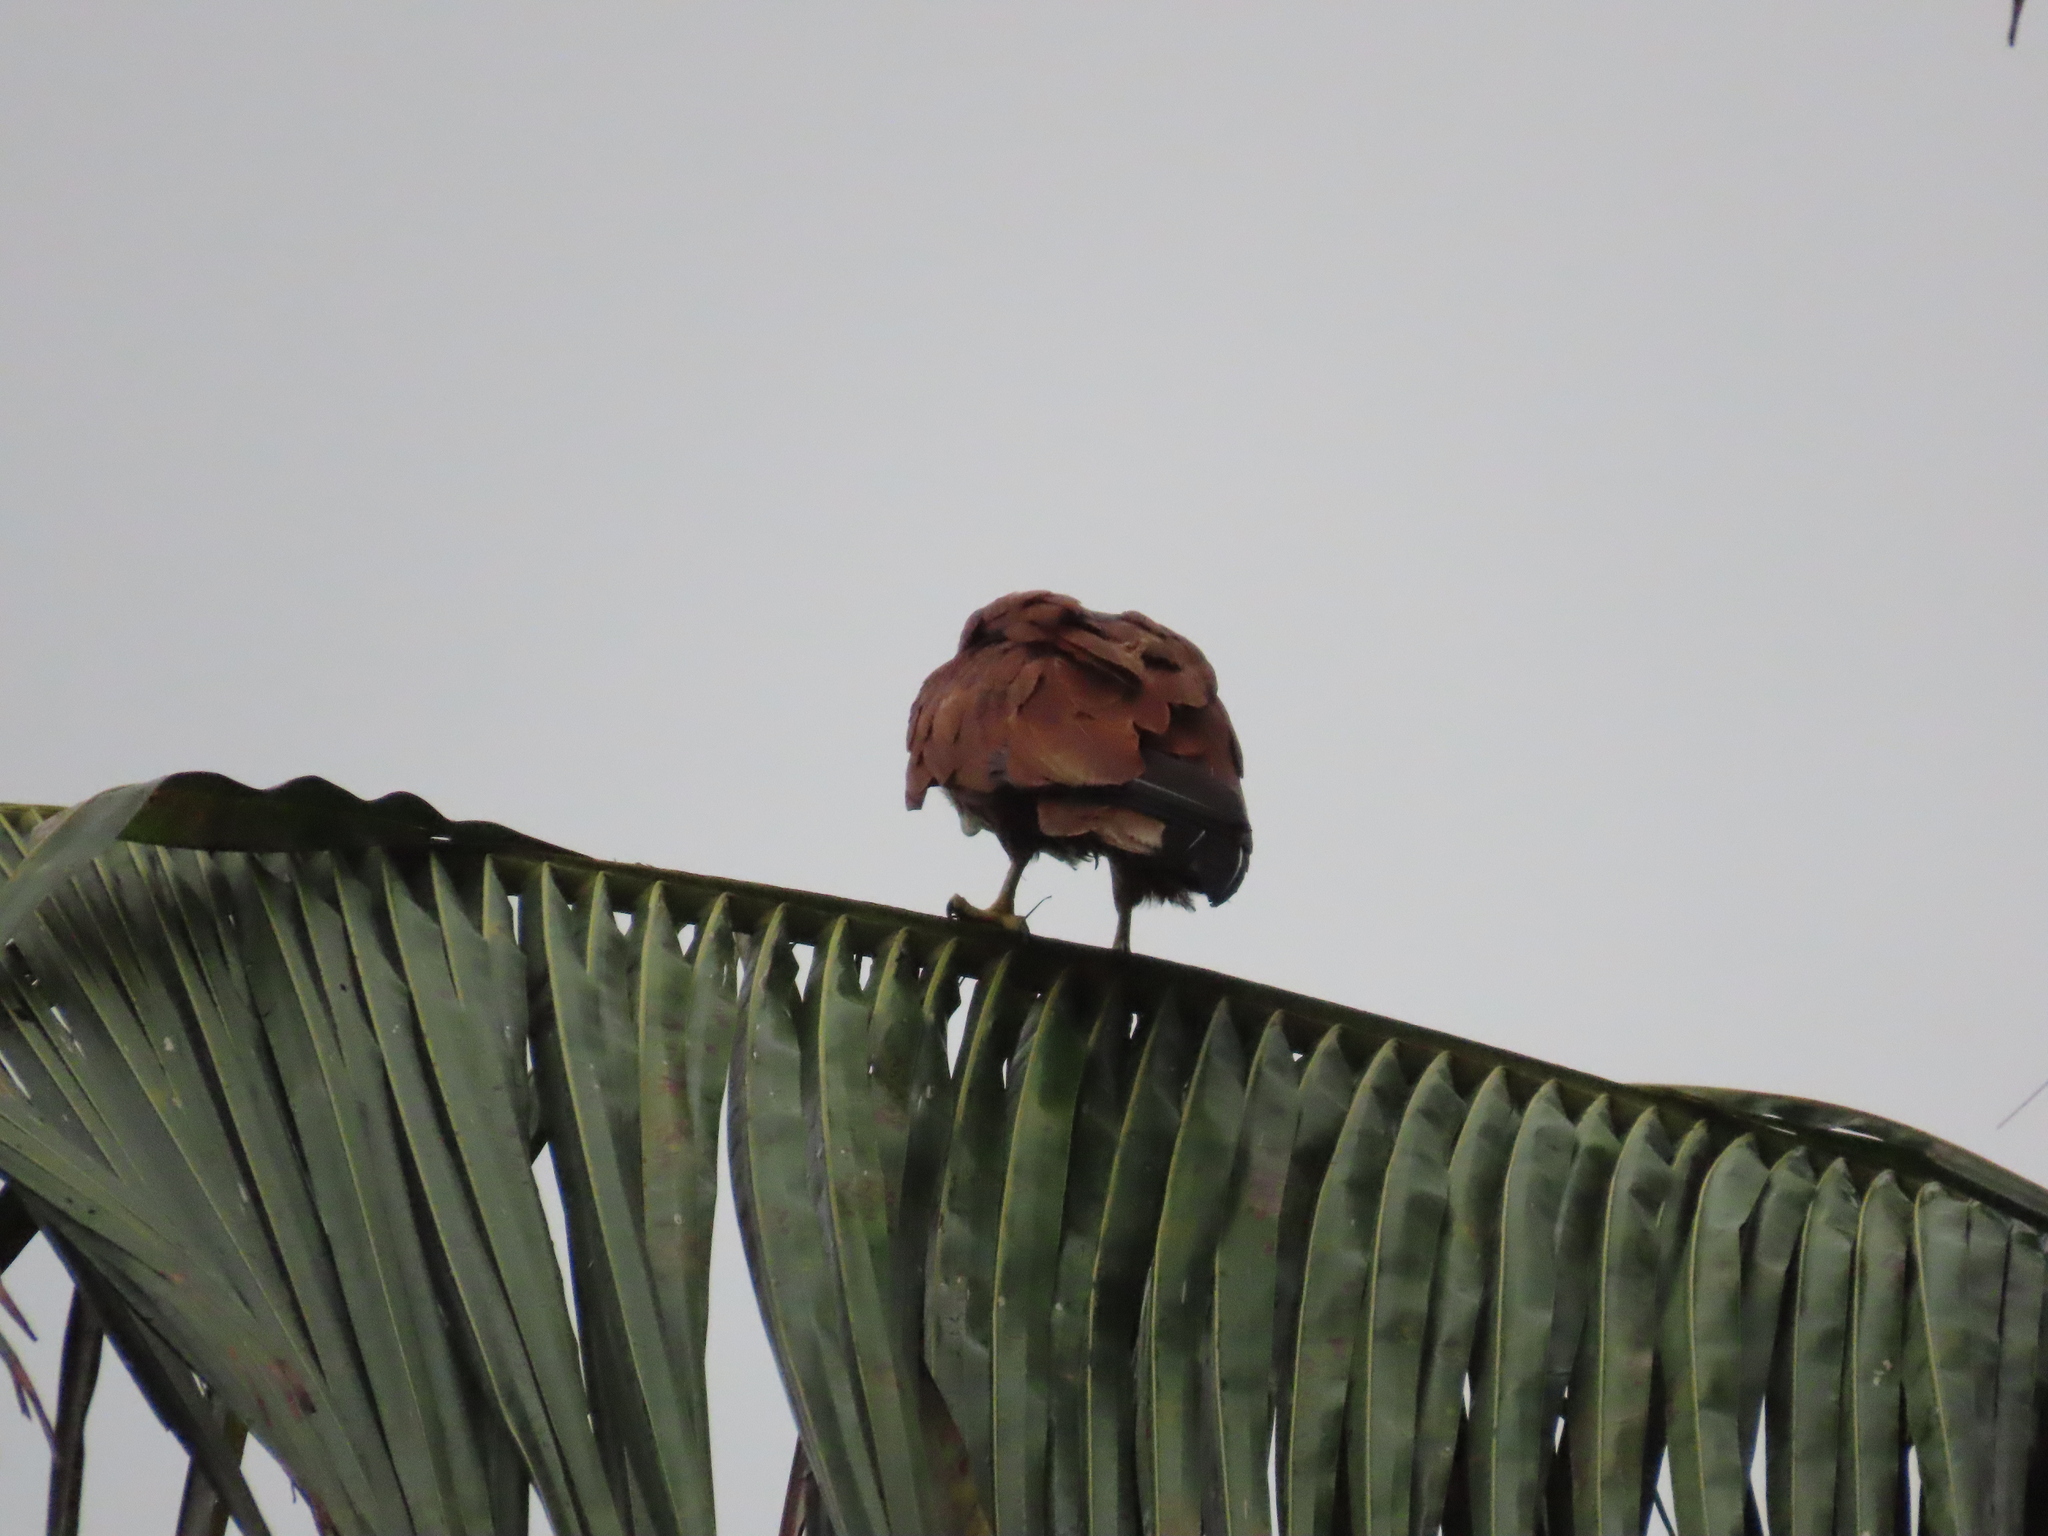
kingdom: Animalia
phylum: Chordata
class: Aves
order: Accipitriformes
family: Accipitridae
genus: Haliastur
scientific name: Haliastur indus
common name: Brahminy kite
